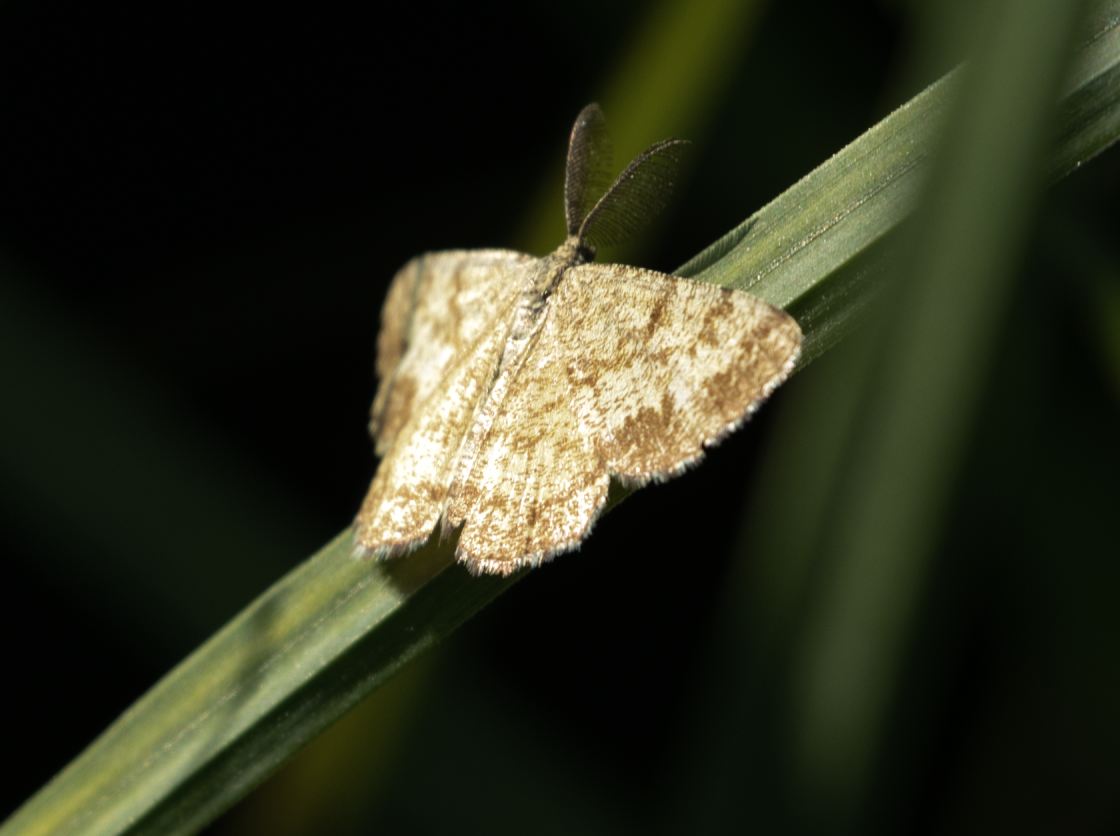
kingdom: Animalia
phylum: Arthropoda
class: Insecta
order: Lepidoptera
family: Geometridae
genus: Ematurga
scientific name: Ematurga atomaria
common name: Common heath
